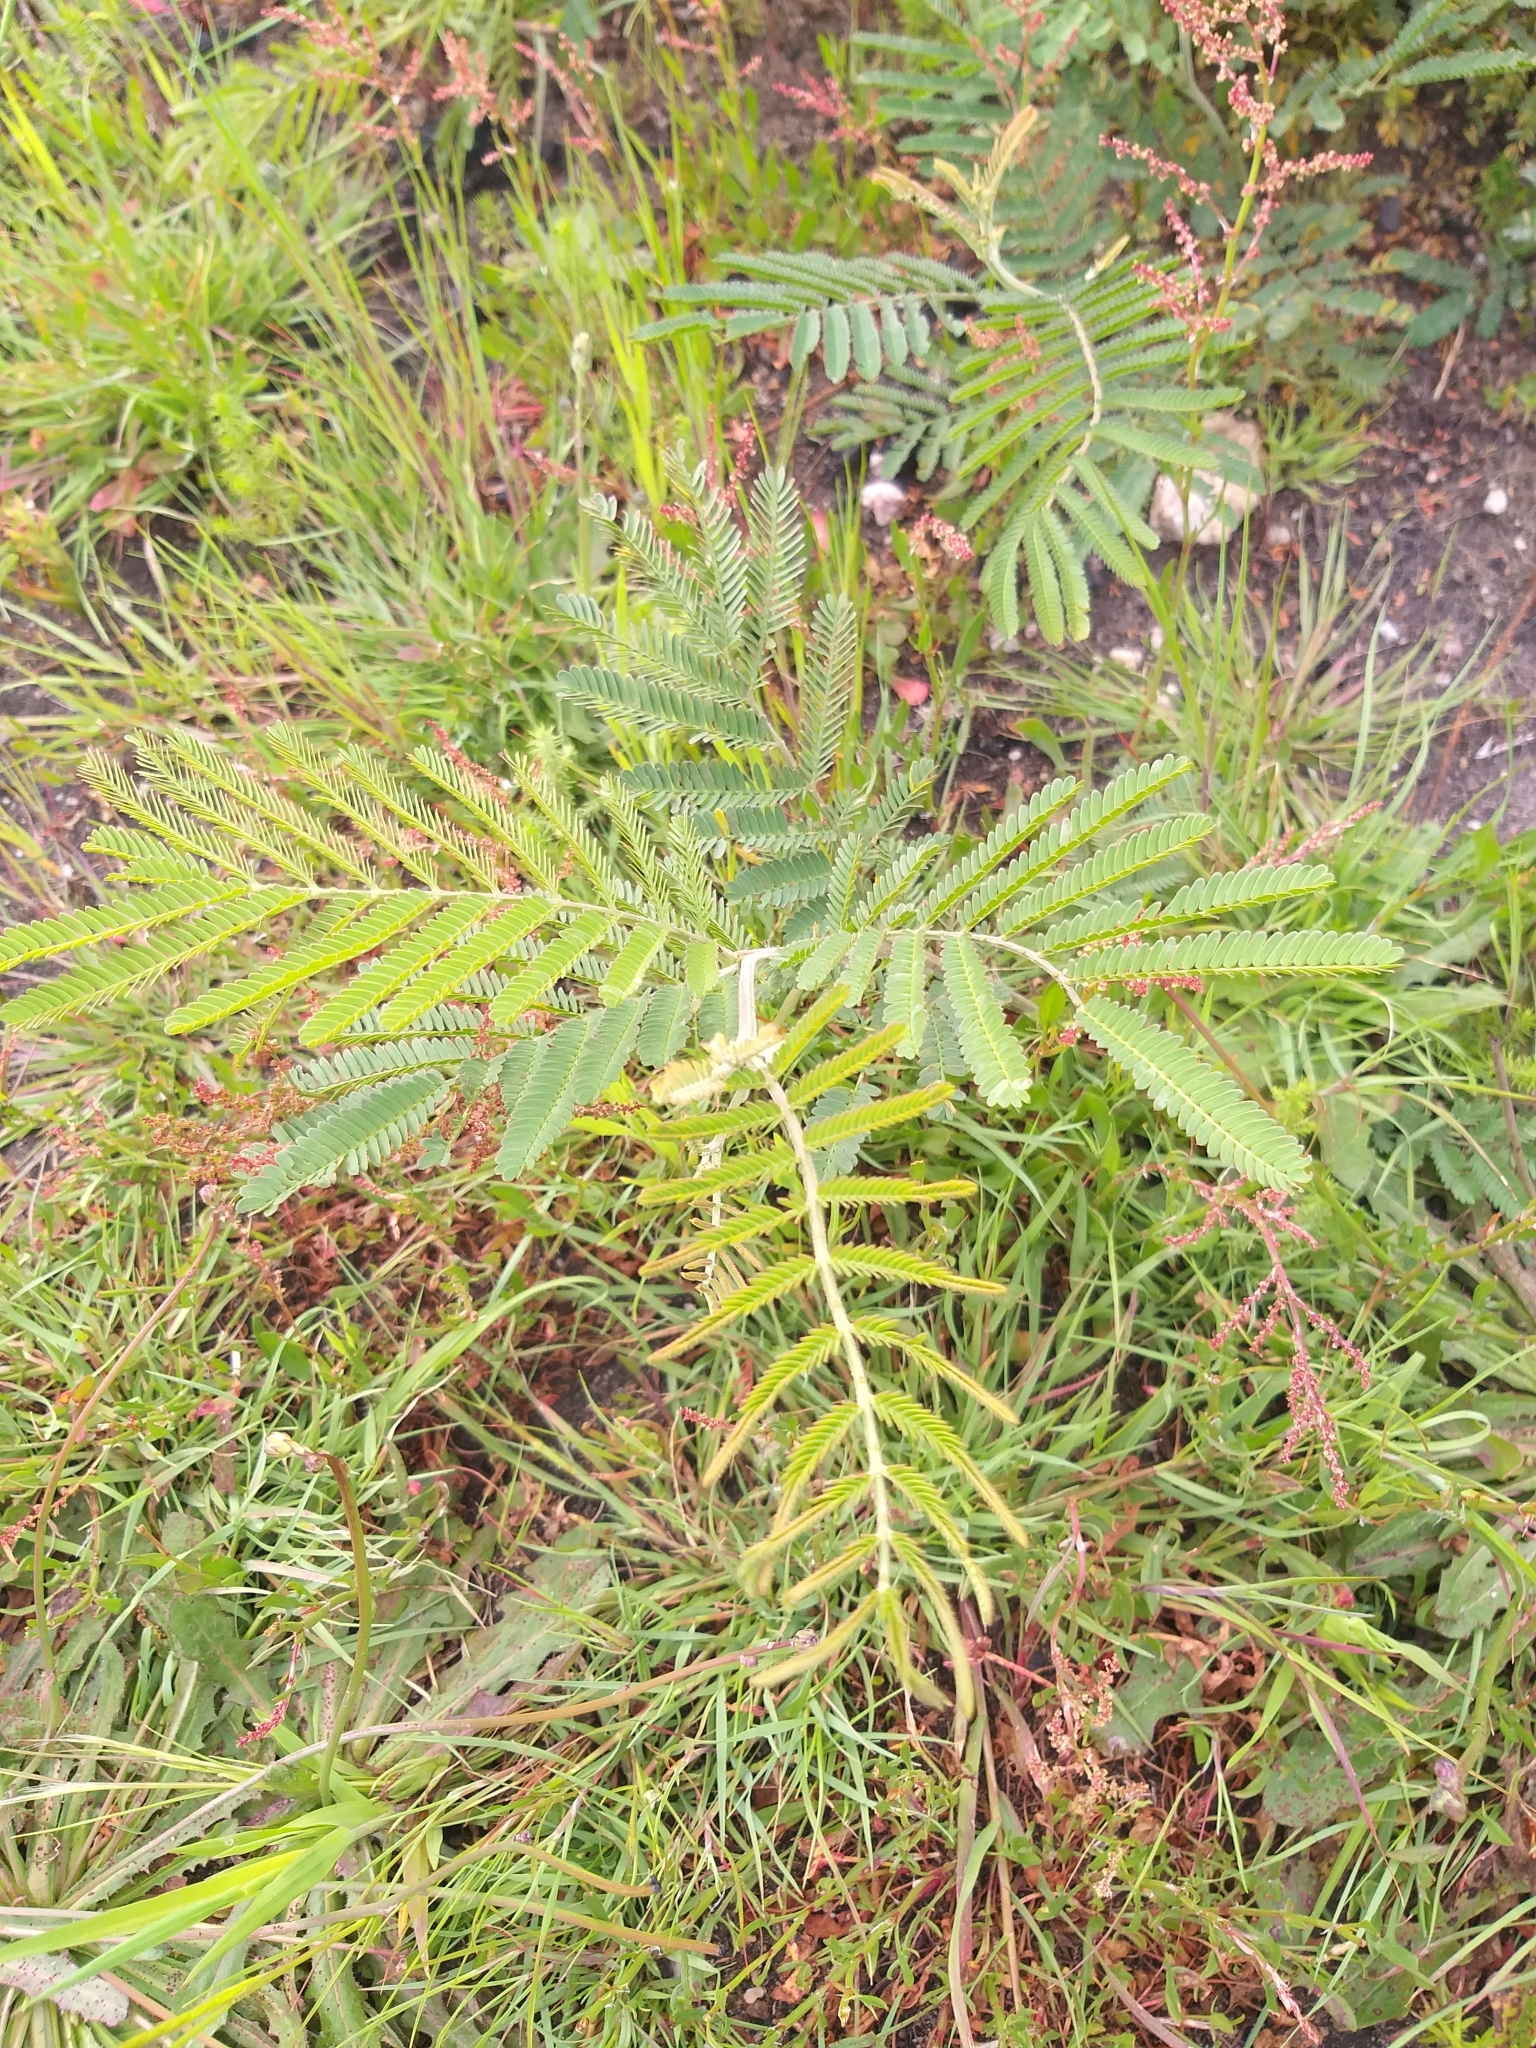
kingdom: Plantae
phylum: Tracheophyta
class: Magnoliopsida
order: Fabales
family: Fabaceae
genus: Acacia
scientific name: Acacia mearnsii
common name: Black wattle
